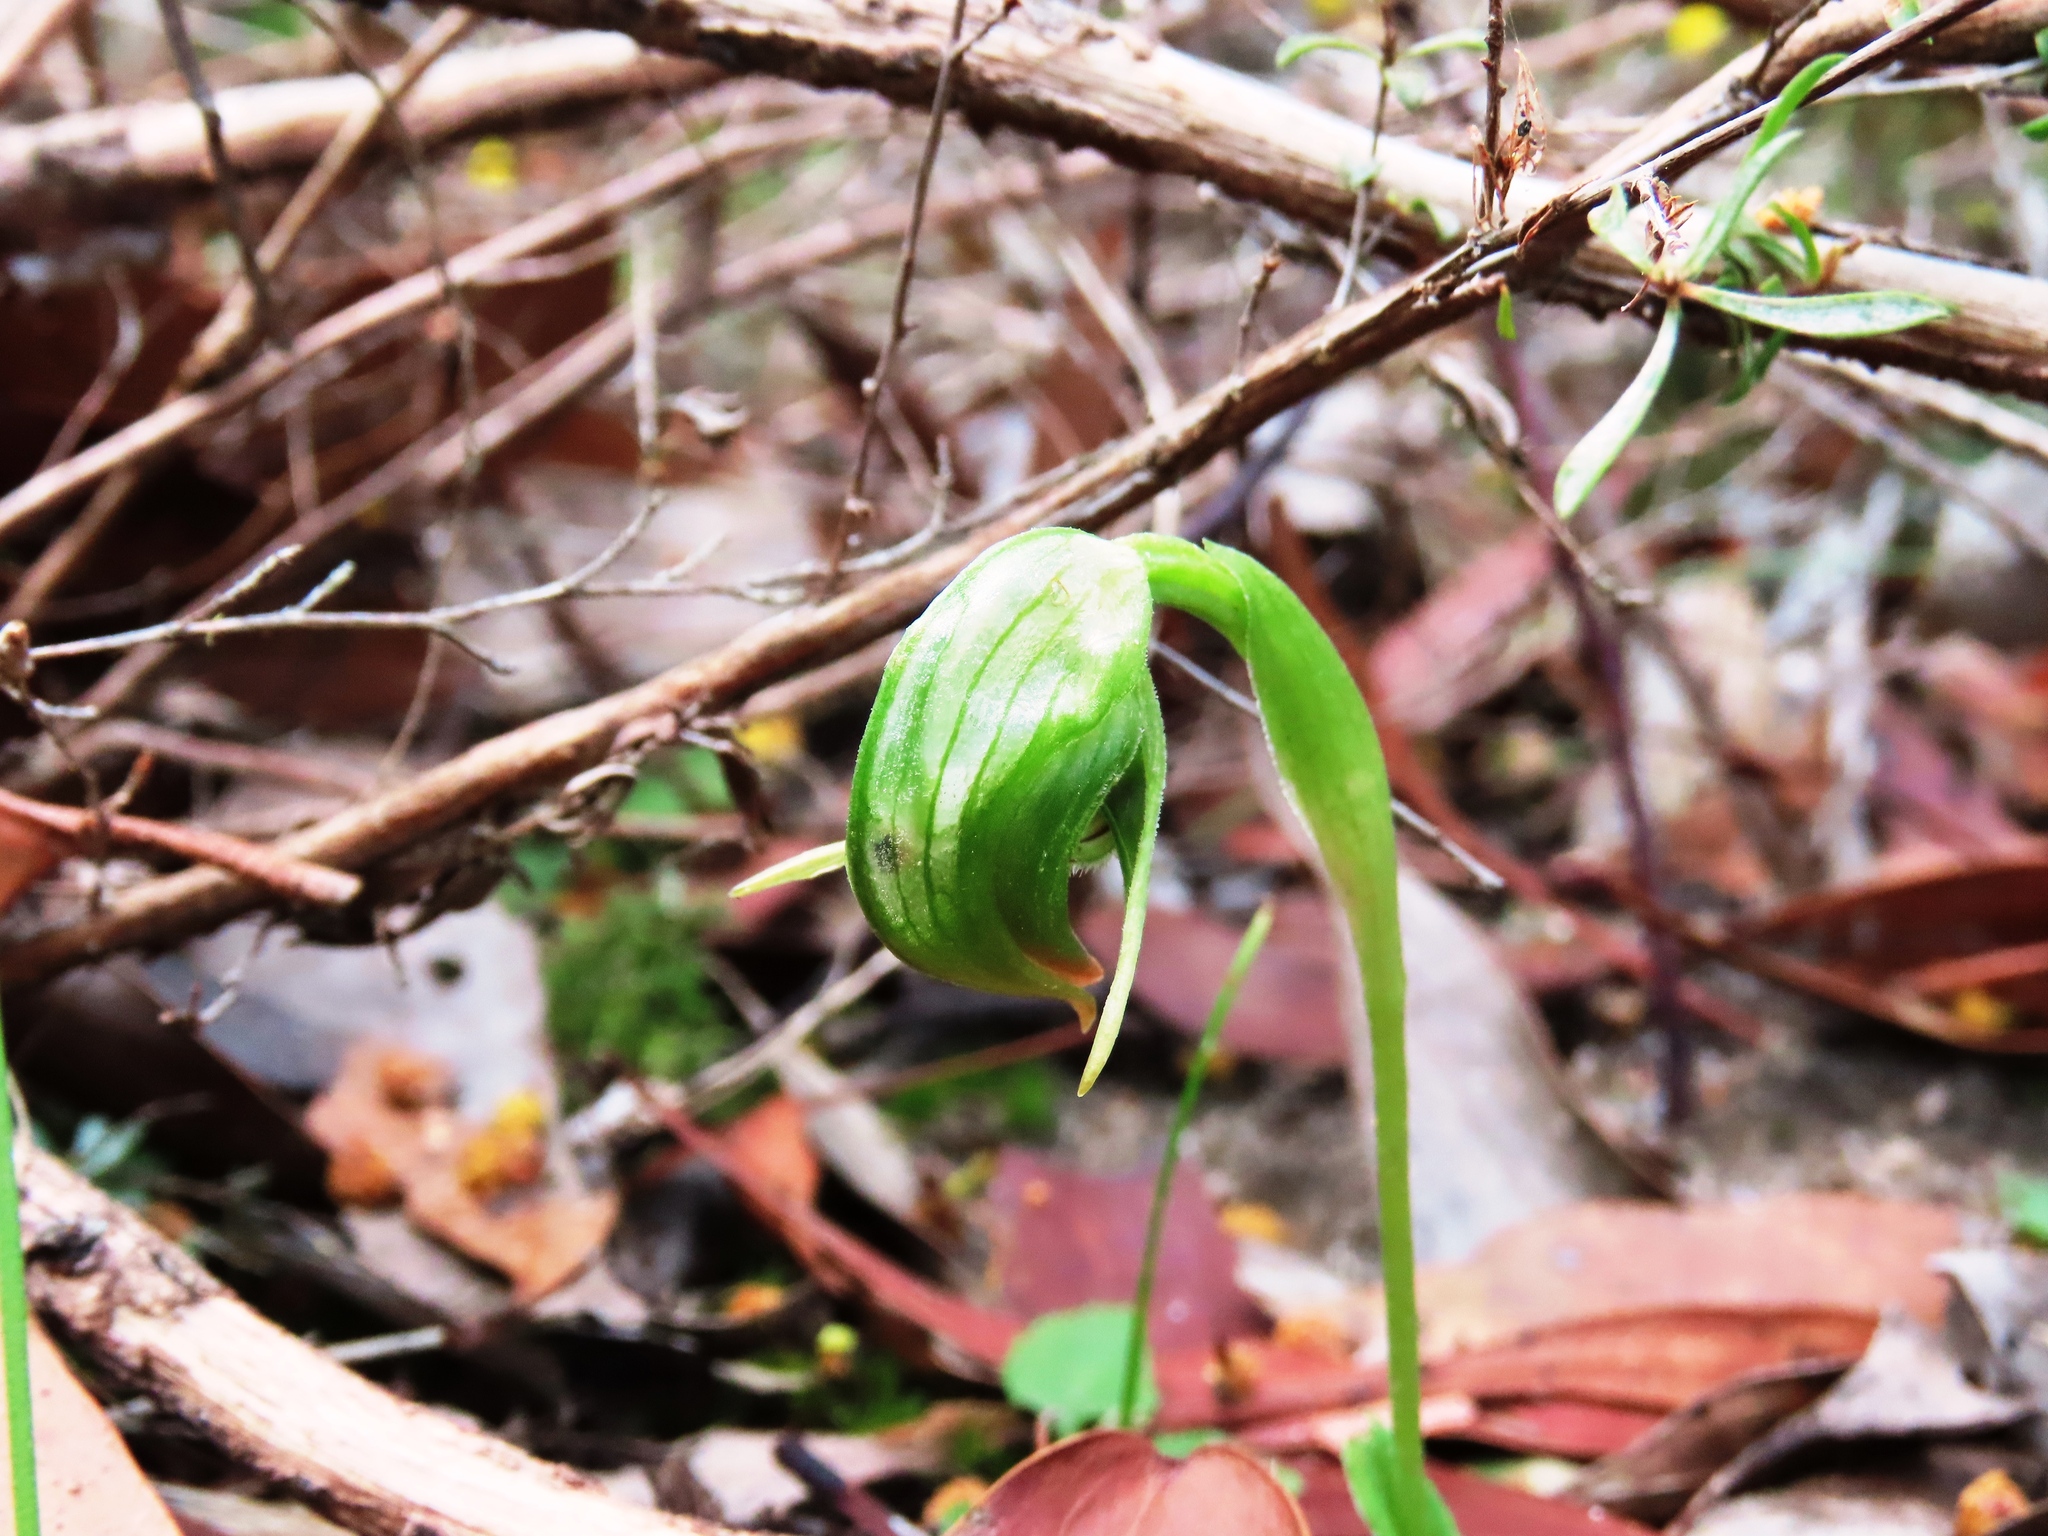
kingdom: Plantae
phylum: Tracheophyta
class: Liliopsida
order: Asparagales
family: Orchidaceae
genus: Pterostylis
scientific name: Pterostylis nutans
